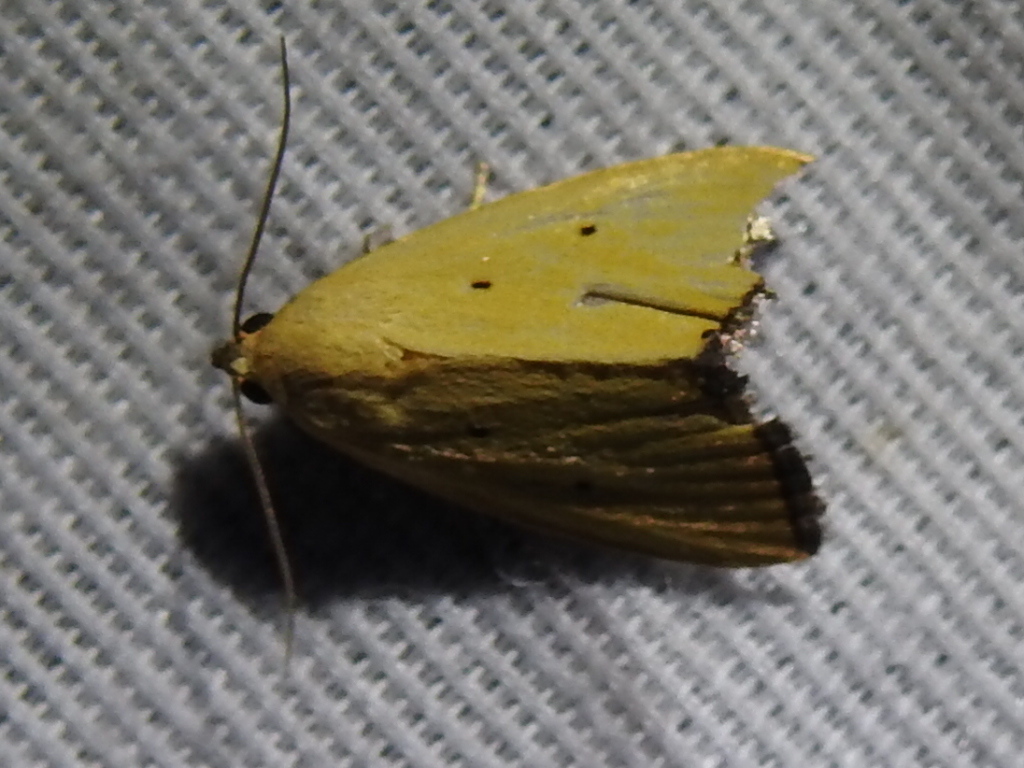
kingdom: Animalia
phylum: Arthropoda
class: Insecta
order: Lepidoptera
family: Noctuidae
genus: Marimatha
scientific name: Marimatha nigrofimbria
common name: Black-bordered lemon moth
